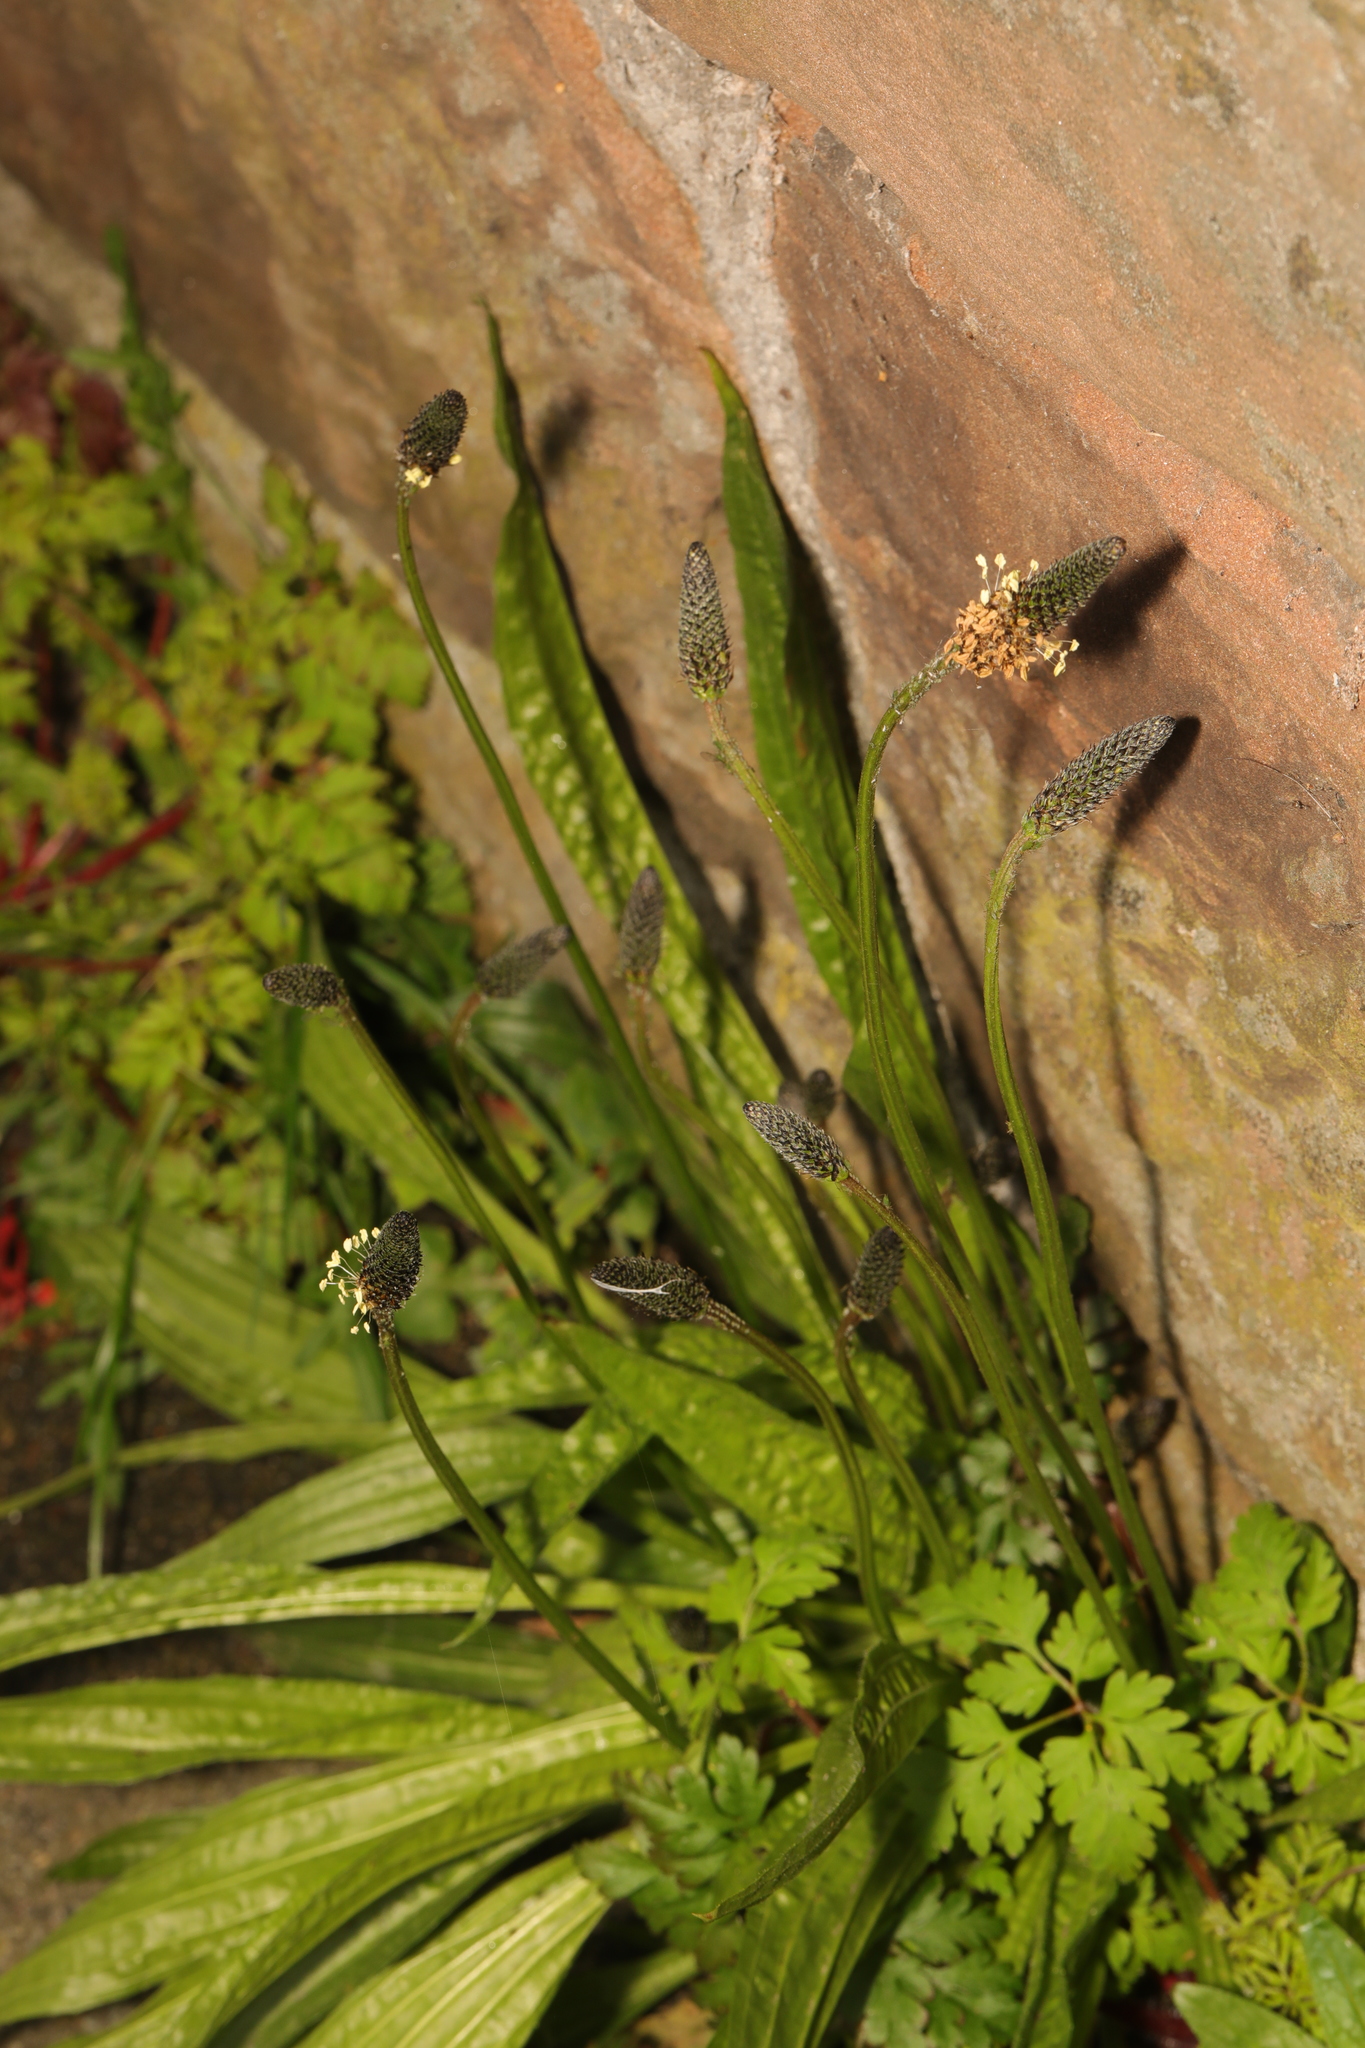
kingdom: Plantae
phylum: Tracheophyta
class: Magnoliopsida
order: Lamiales
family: Plantaginaceae
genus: Plantago
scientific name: Plantago lanceolata
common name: Ribwort plantain
